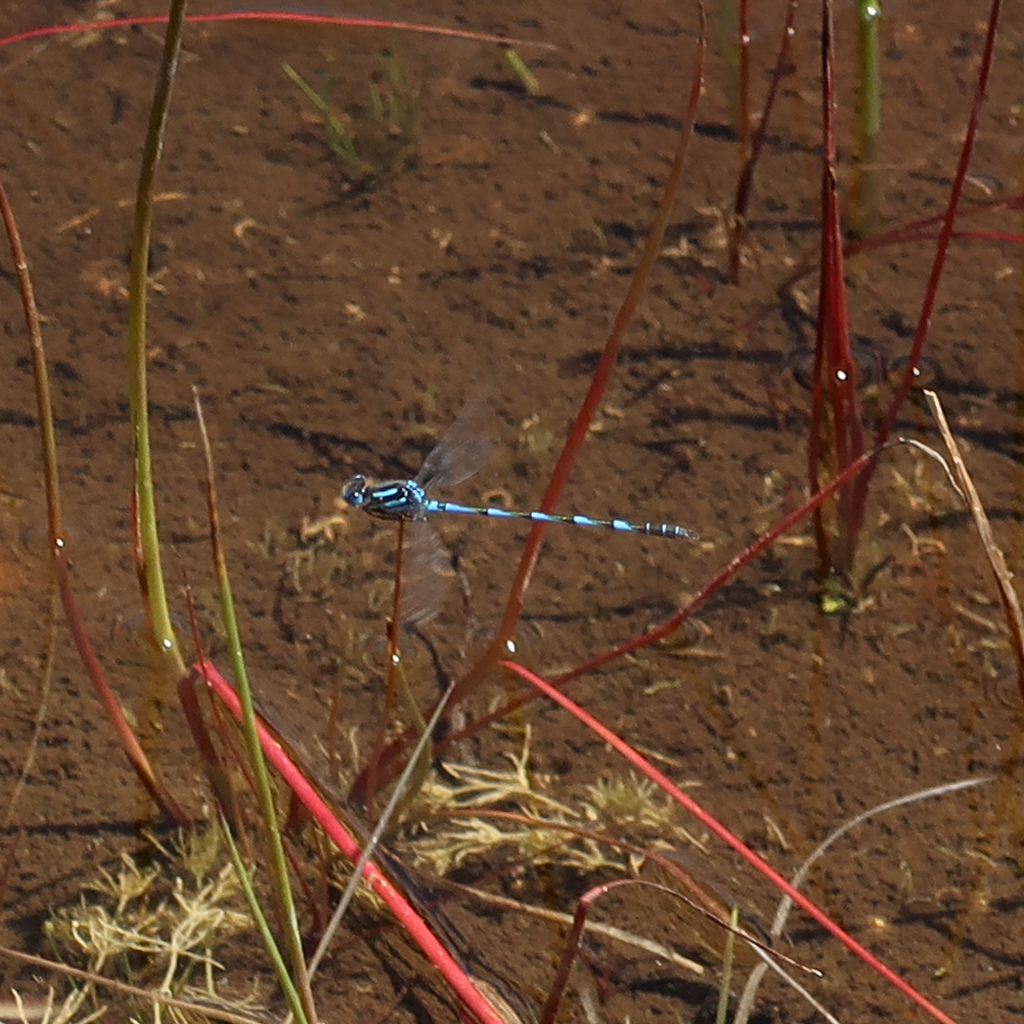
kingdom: Animalia
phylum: Arthropoda
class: Insecta
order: Odonata
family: Lestidae
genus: Austrolestes
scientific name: Austrolestes annulosus
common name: Blue ringtail
